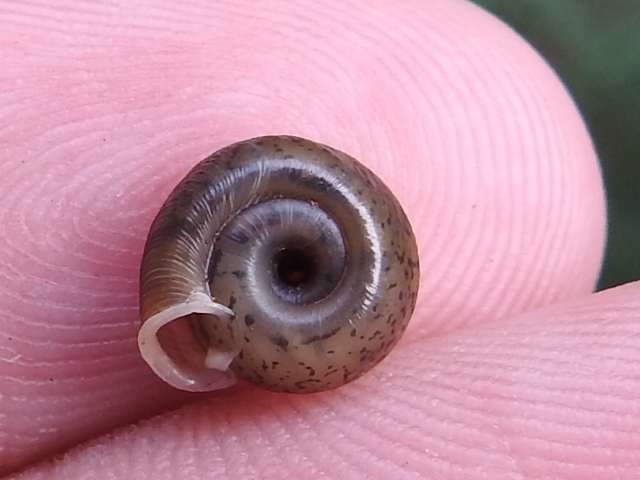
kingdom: Animalia
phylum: Mollusca
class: Gastropoda
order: Stylommatophora
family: Polygyridae
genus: Polygyra
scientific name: Polygyra cereolus
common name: Southern flatcone snail
